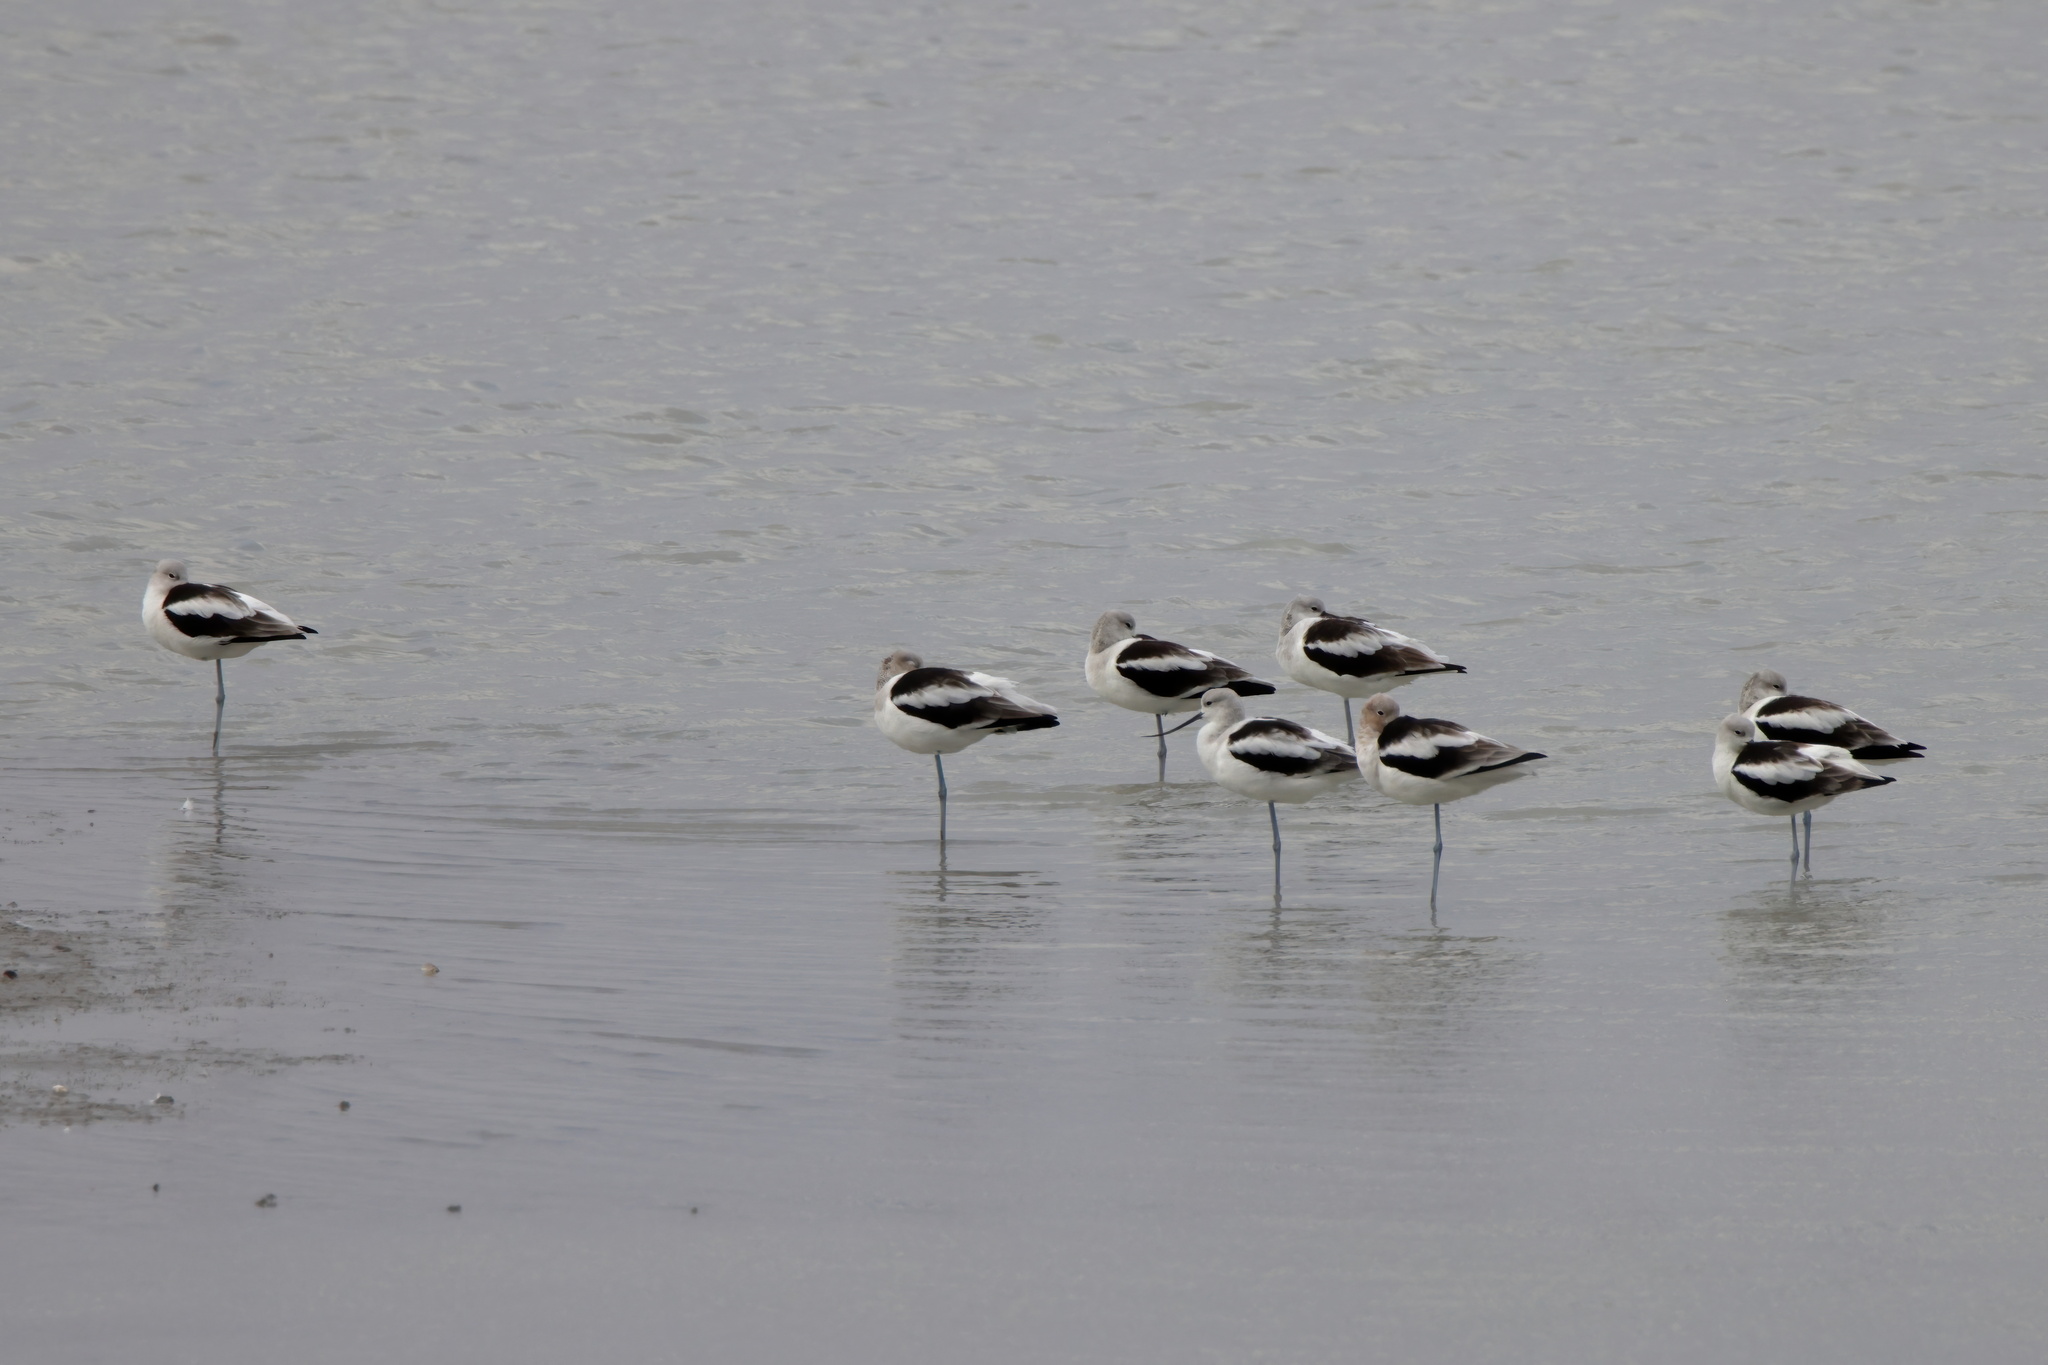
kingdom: Animalia
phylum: Chordata
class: Aves
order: Charadriiformes
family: Recurvirostridae
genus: Recurvirostra
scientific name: Recurvirostra americana
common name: American avocet
